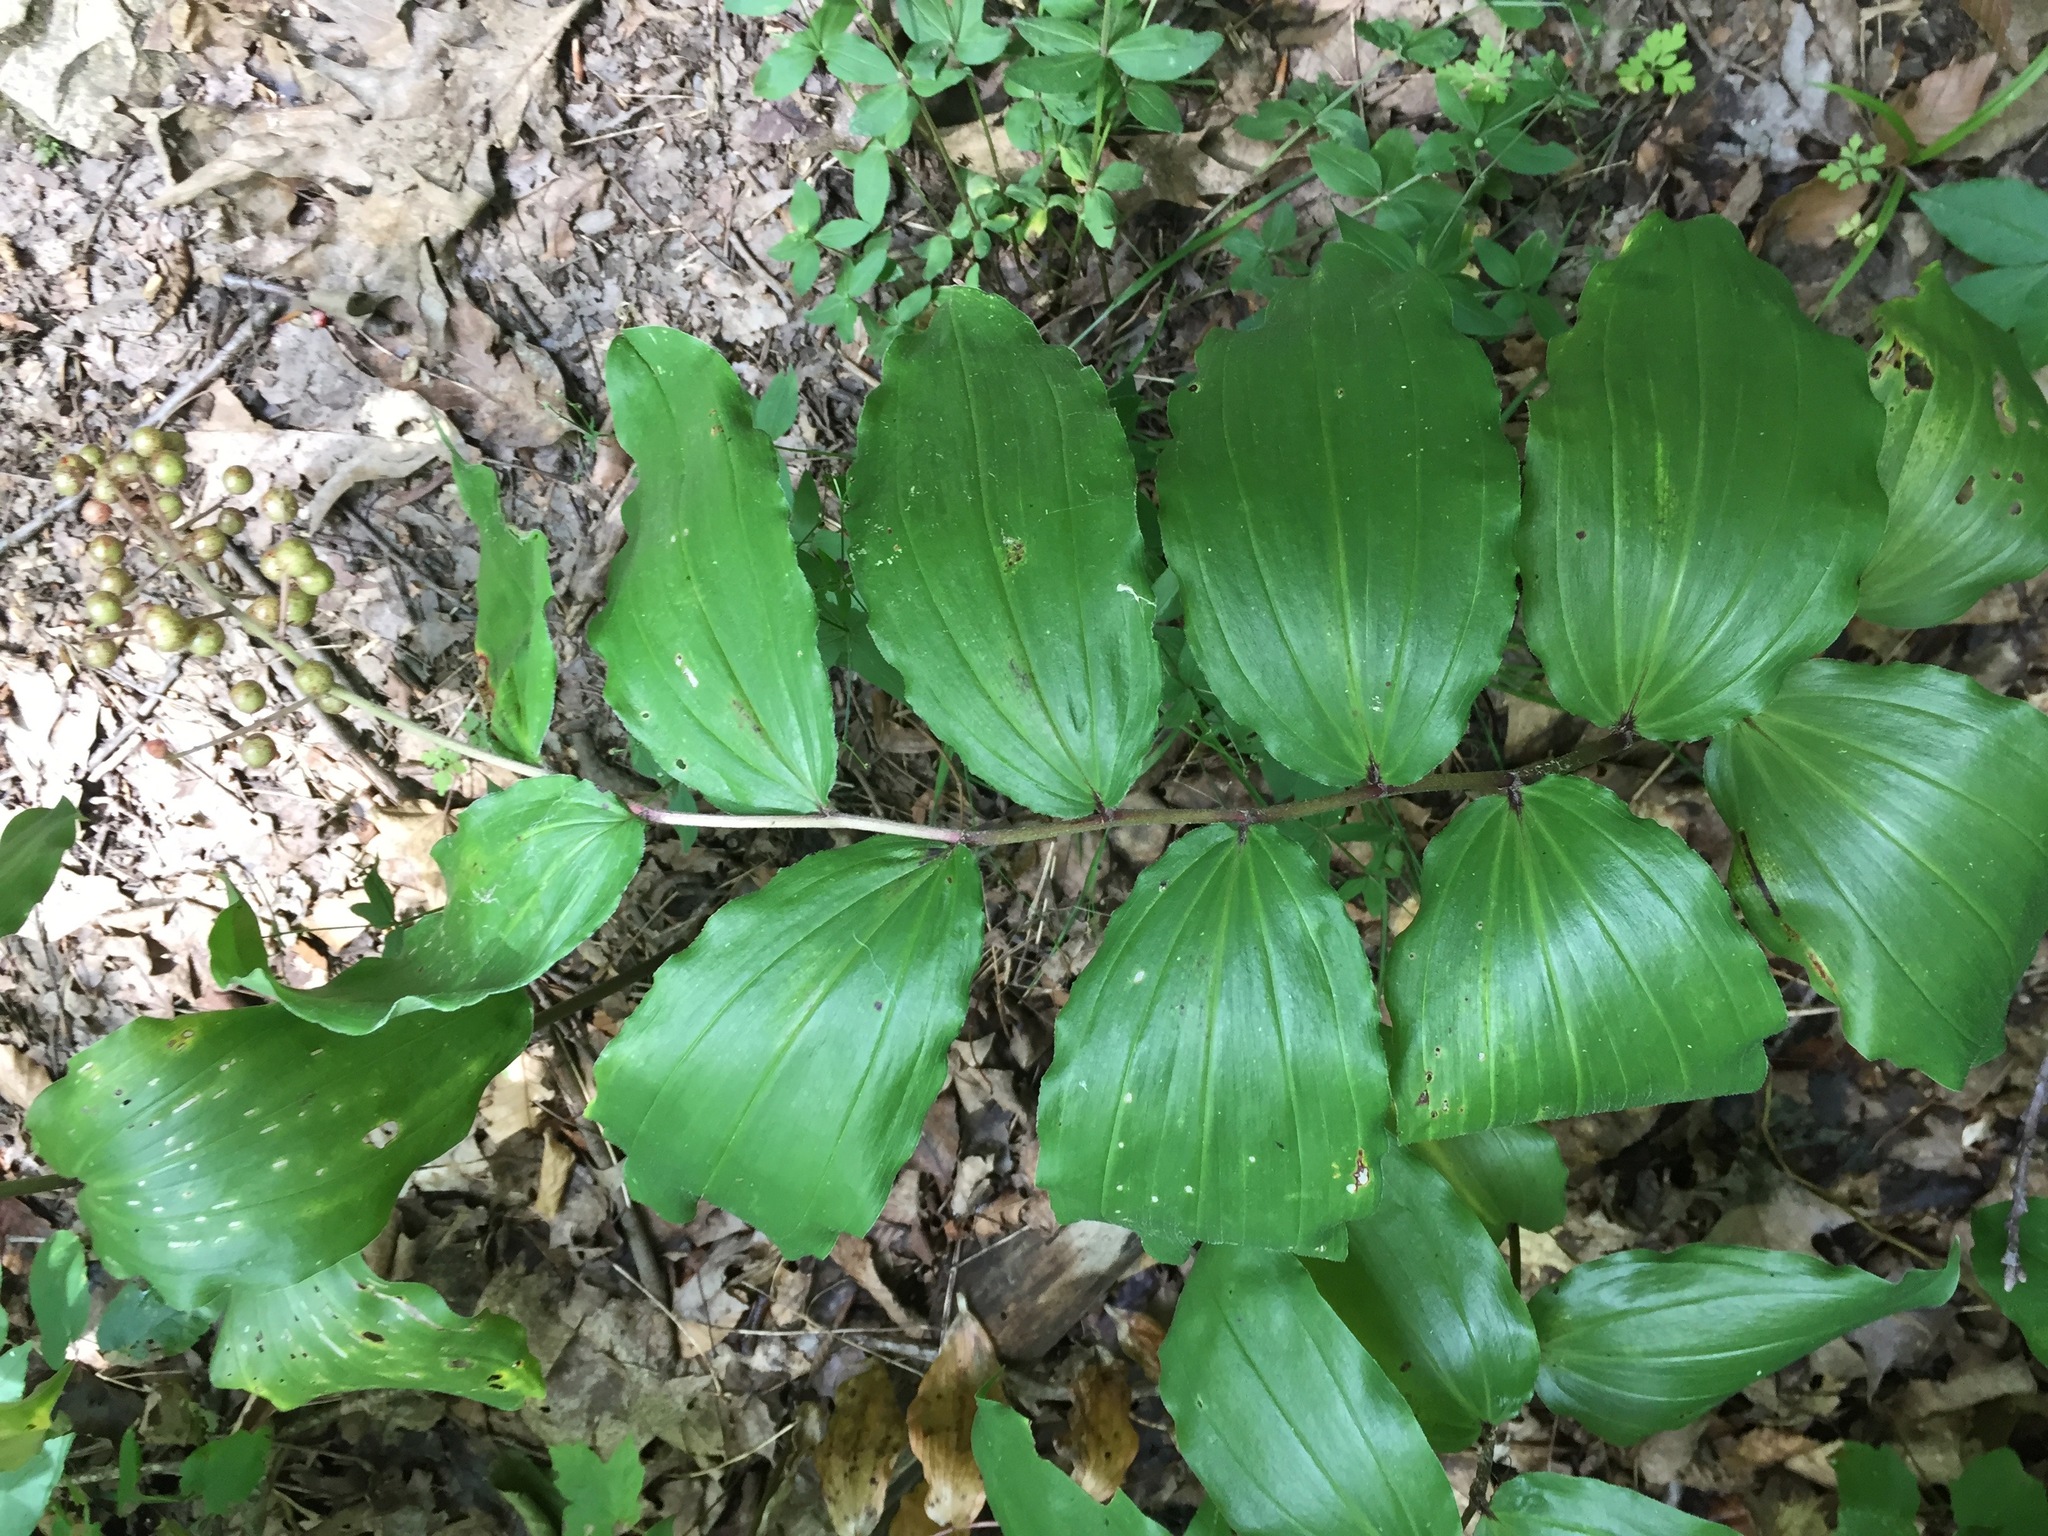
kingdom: Plantae
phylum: Tracheophyta
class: Liliopsida
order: Asparagales
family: Asparagaceae
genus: Maianthemum
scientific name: Maianthemum racemosum
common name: False spikenard
